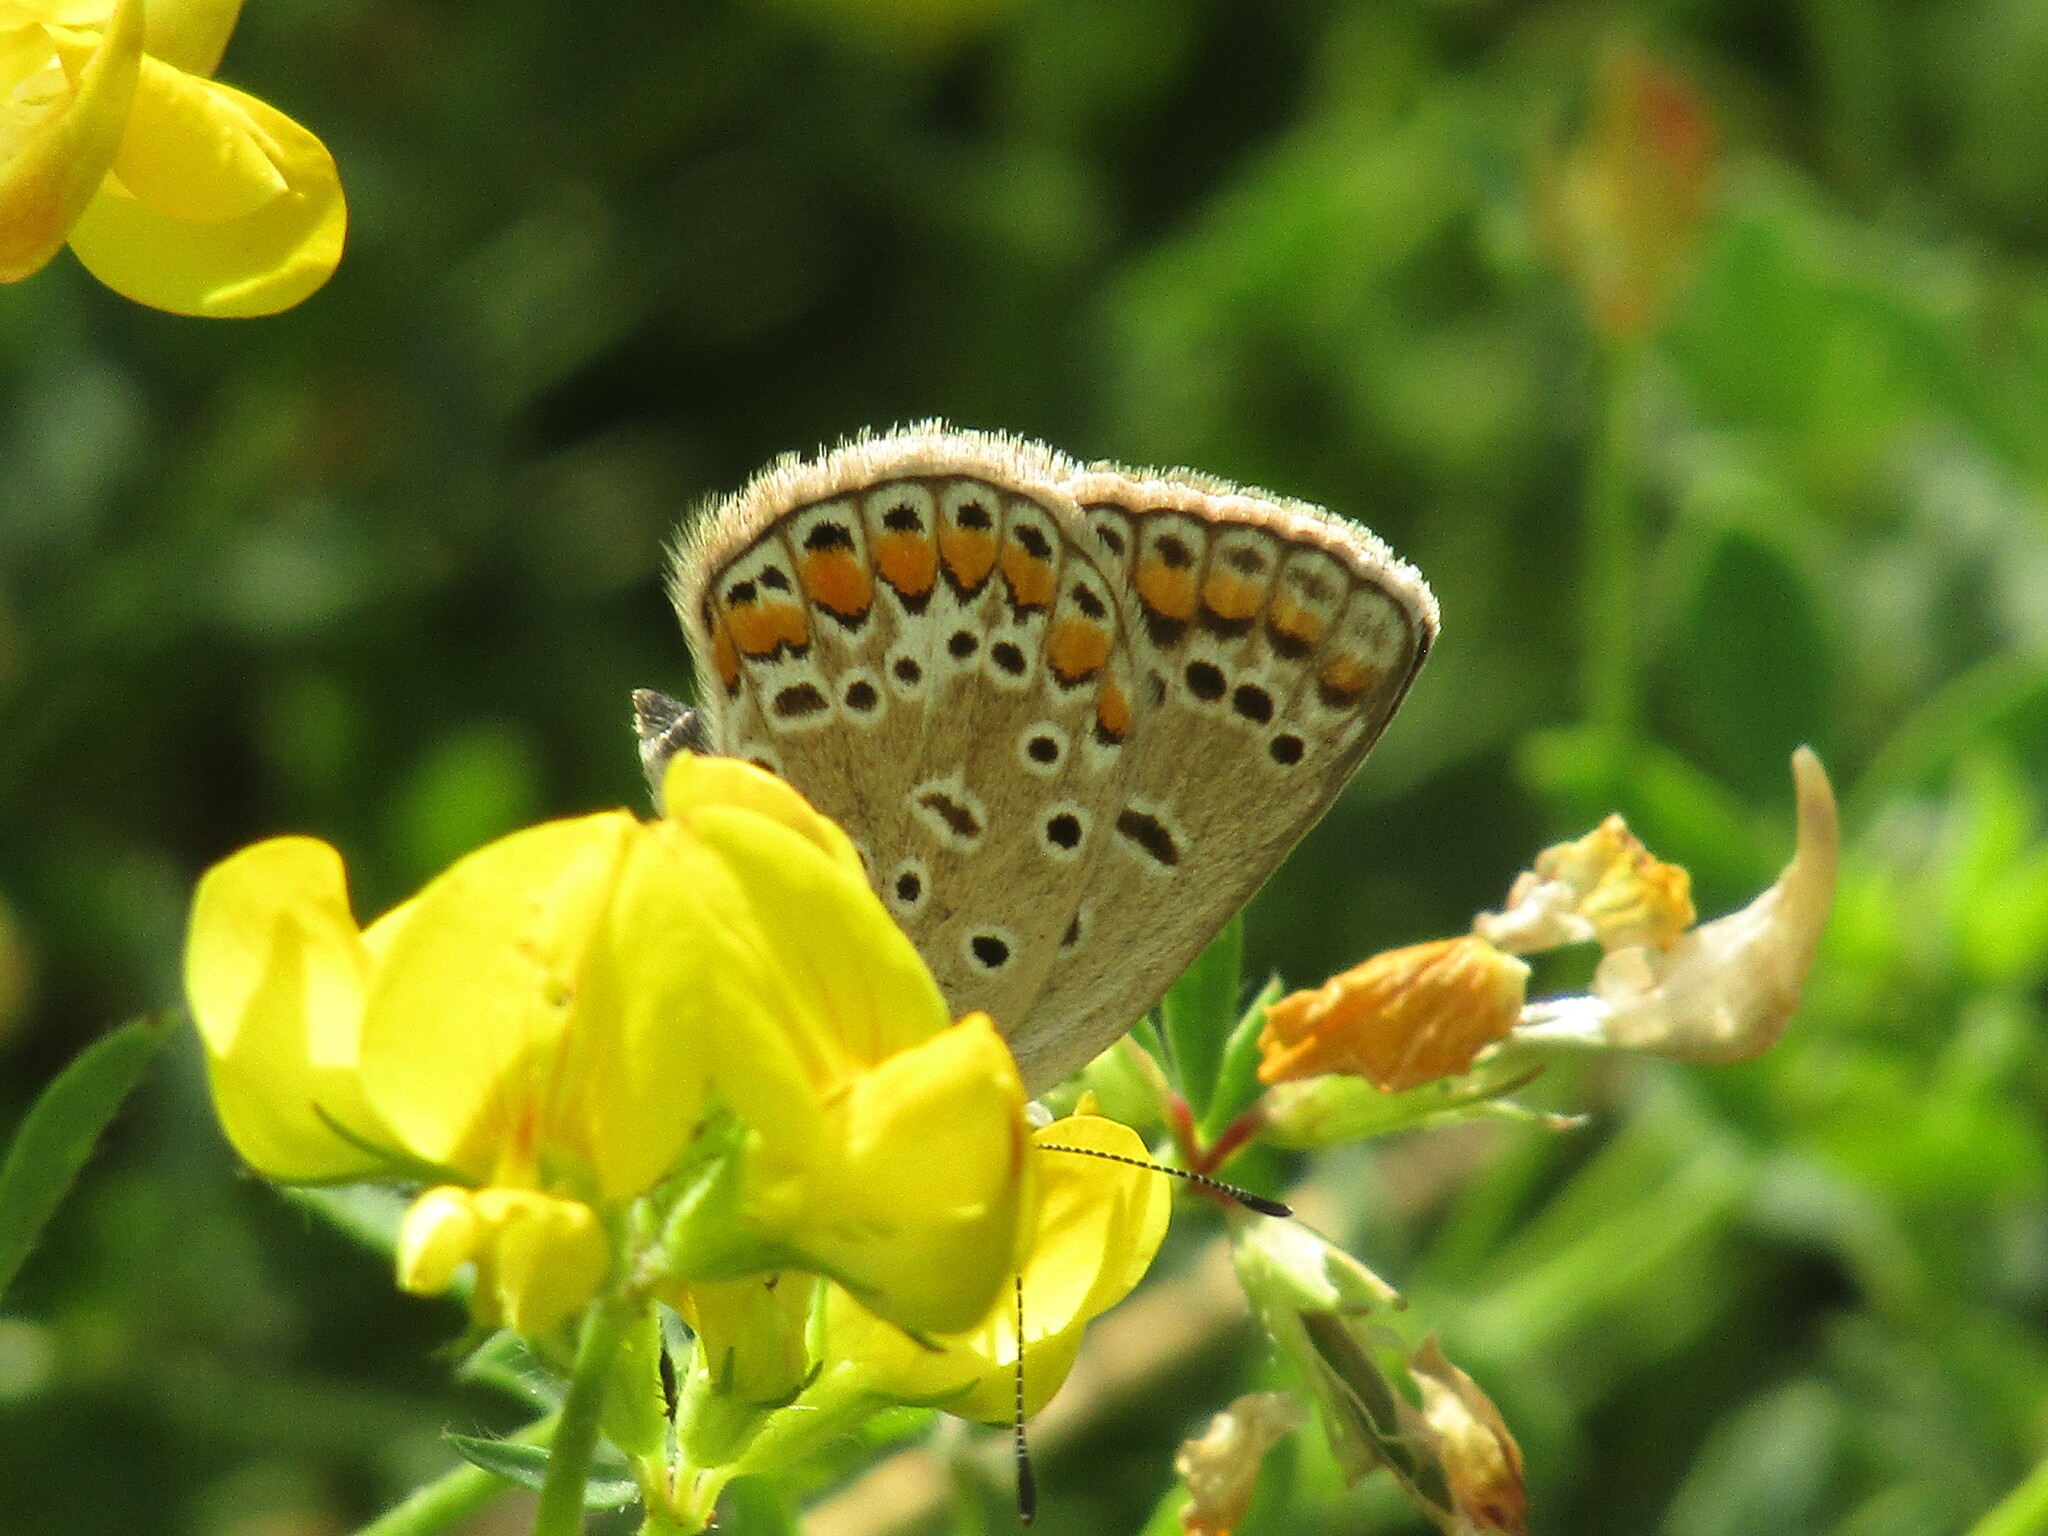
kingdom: Animalia
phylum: Arthropoda
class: Insecta
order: Lepidoptera
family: Lycaenidae
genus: Polyommatus
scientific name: Polyommatus icarus
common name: Common blue
